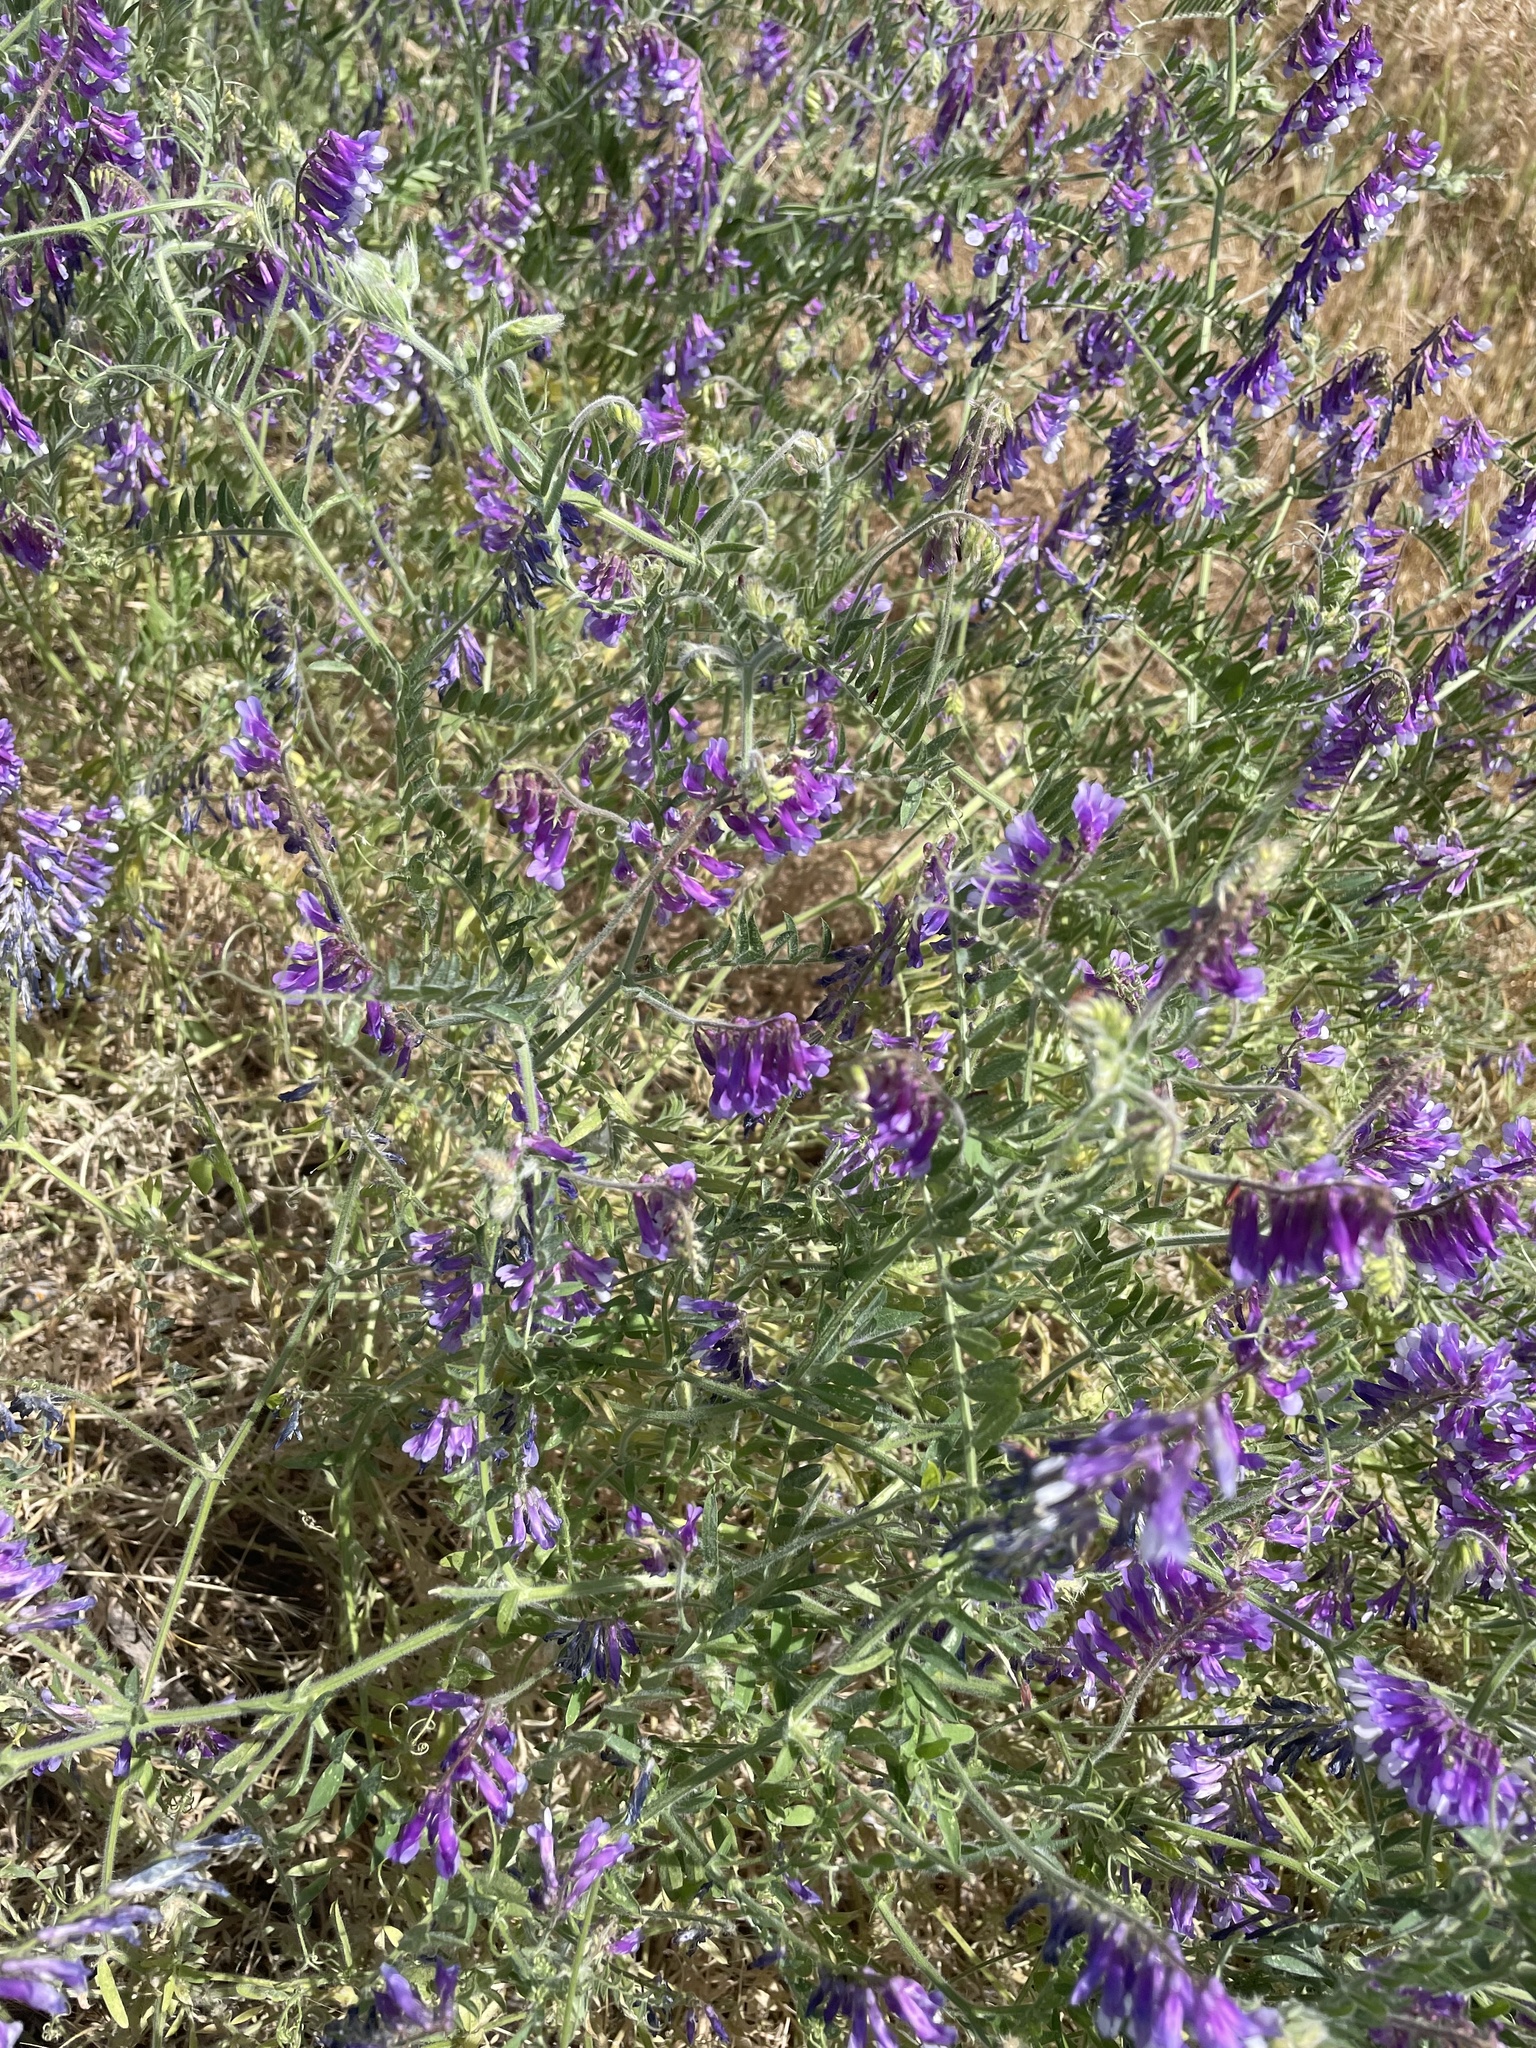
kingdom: Plantae
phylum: Tracheophyta
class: Magnoliopsida
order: Fabales
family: Fabaceae
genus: Vicia
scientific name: Vicia villosa
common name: Fodder vetch
